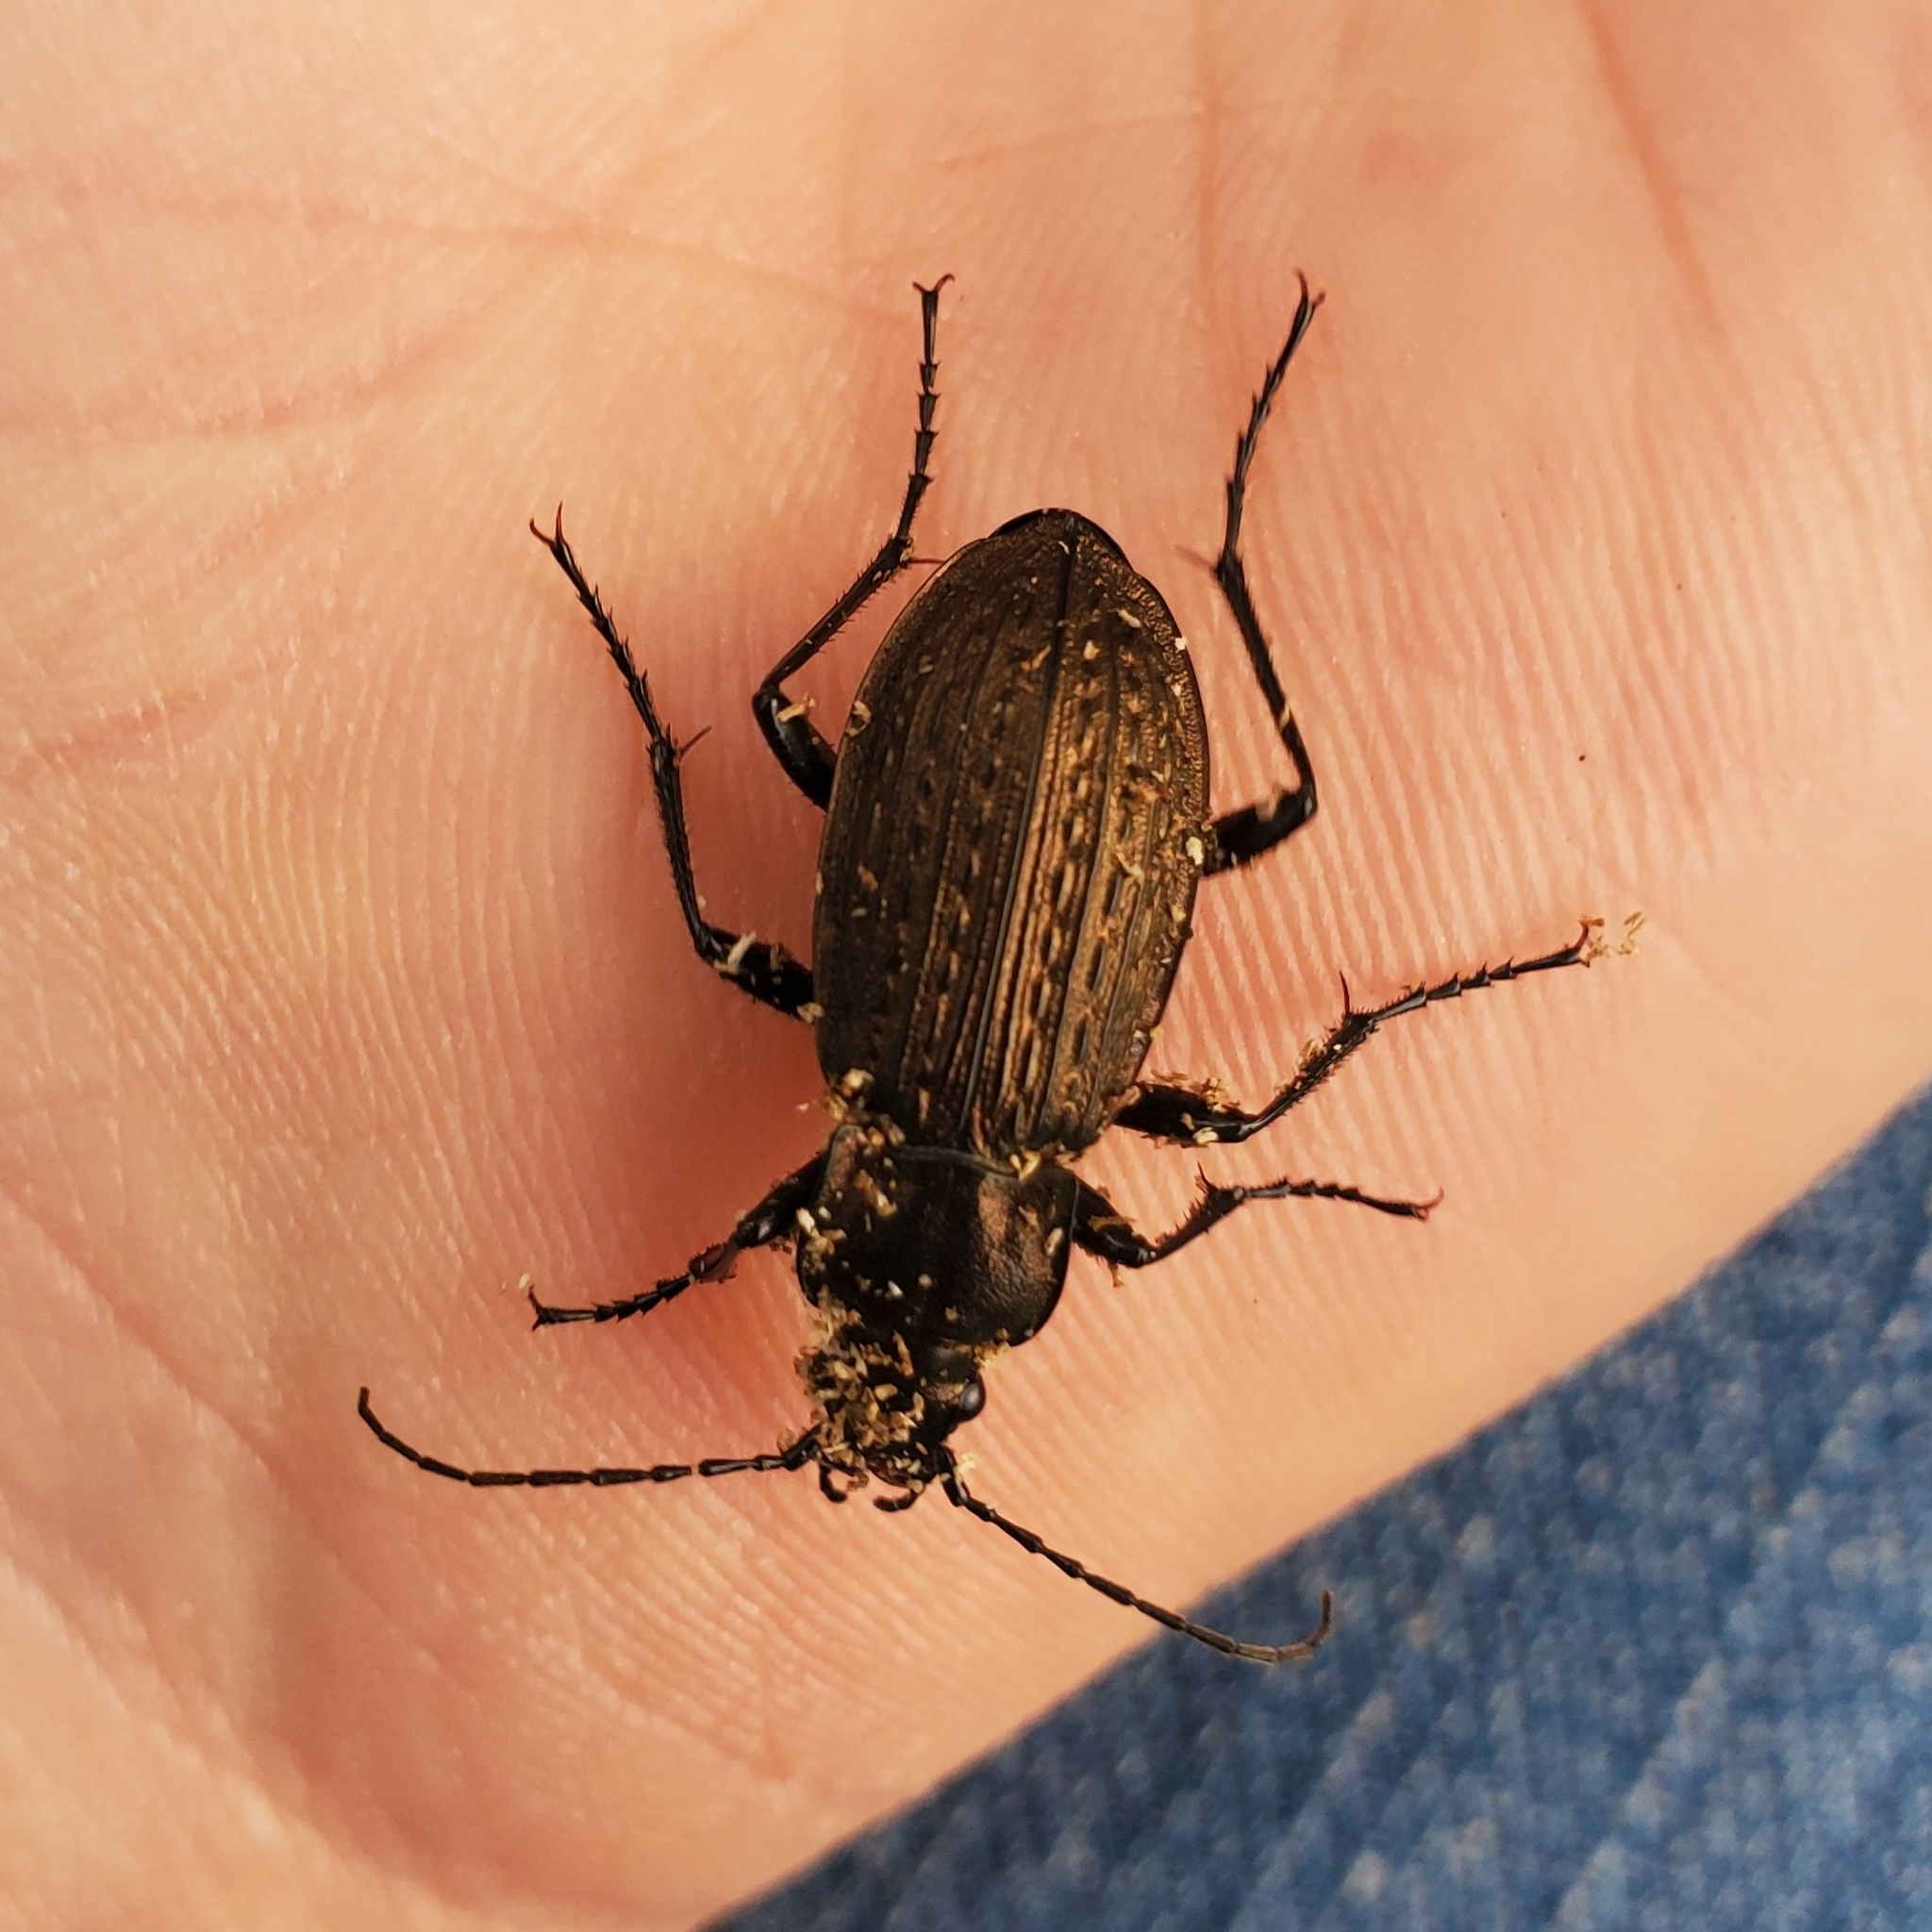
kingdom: Animalia
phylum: Arthropoda
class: Insecta
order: Coleoptera
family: Carabidae
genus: Carabus
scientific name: Carabus granulatus
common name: Granulate ground beetle
